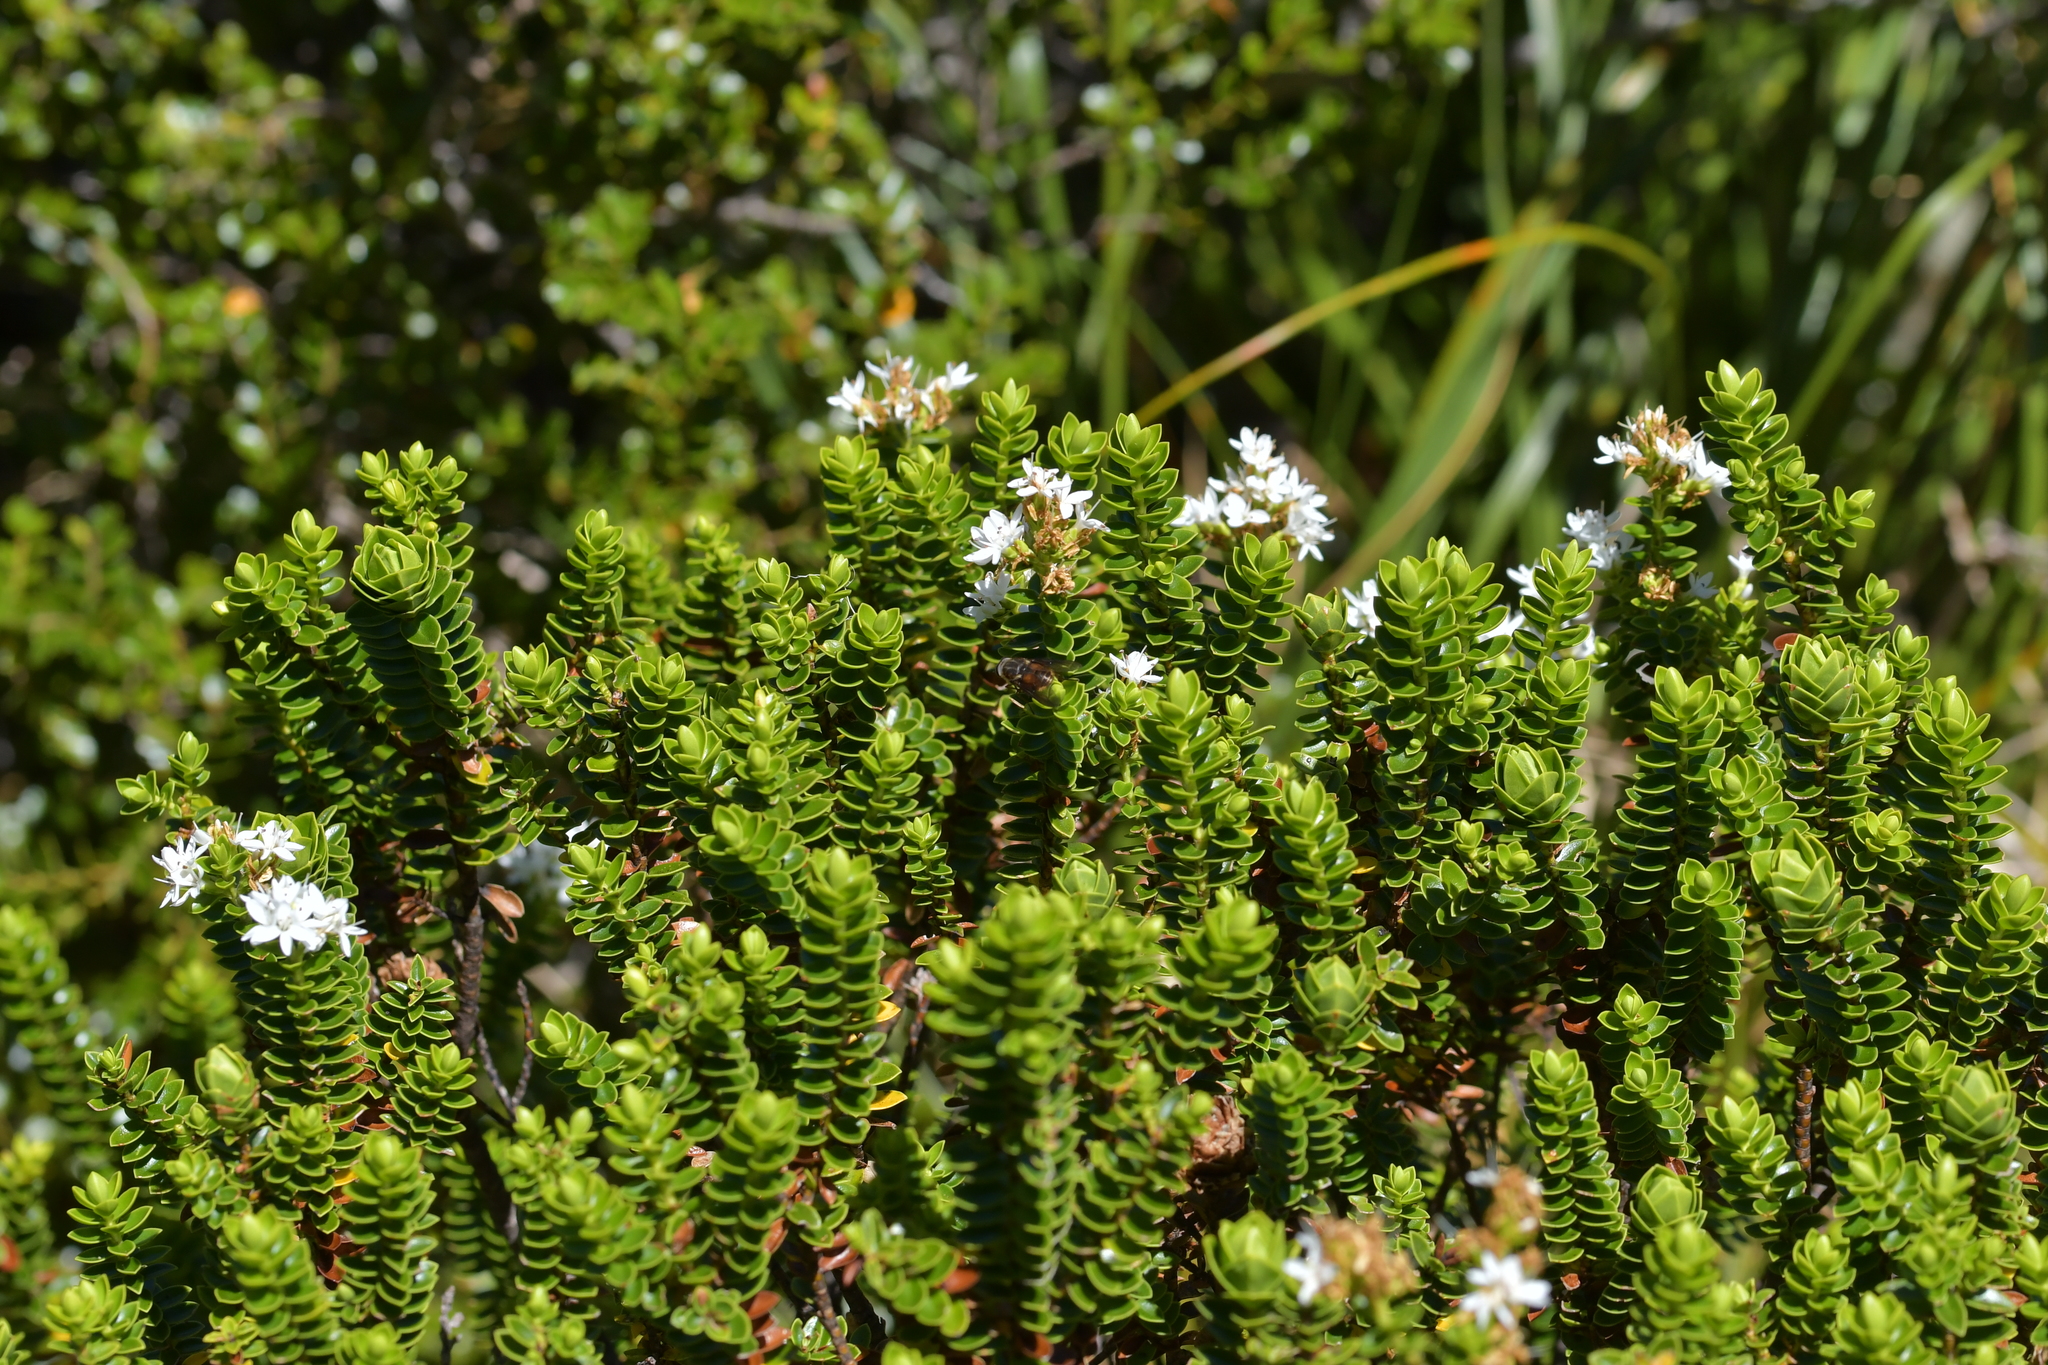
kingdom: Plantae
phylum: Tracheophyta
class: Magnoliopsida
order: Lamiales
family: Plantaginaceae
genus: Veronica
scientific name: Veronica odora
